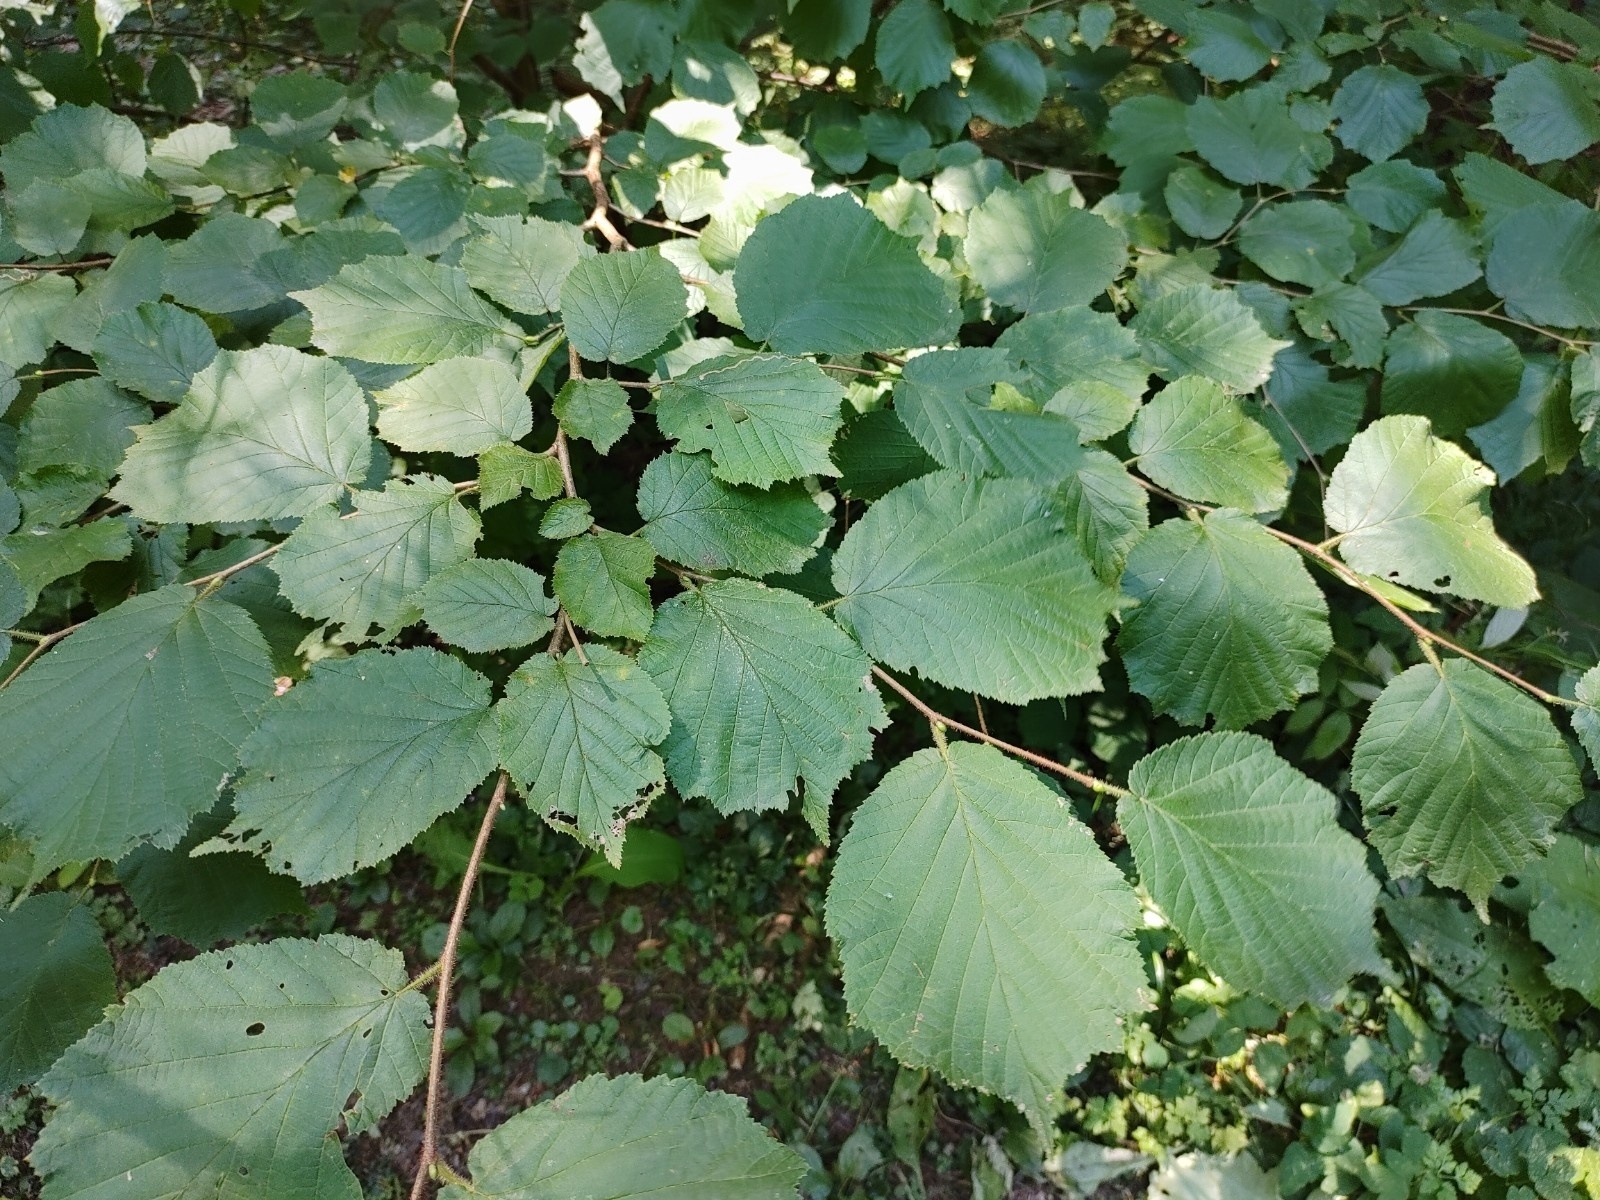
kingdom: Plantae
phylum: Tracheophyta
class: Magnoliopsida
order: Fagales
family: Betulaceae
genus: Corylus
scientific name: Corylus avellana
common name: European hazel
